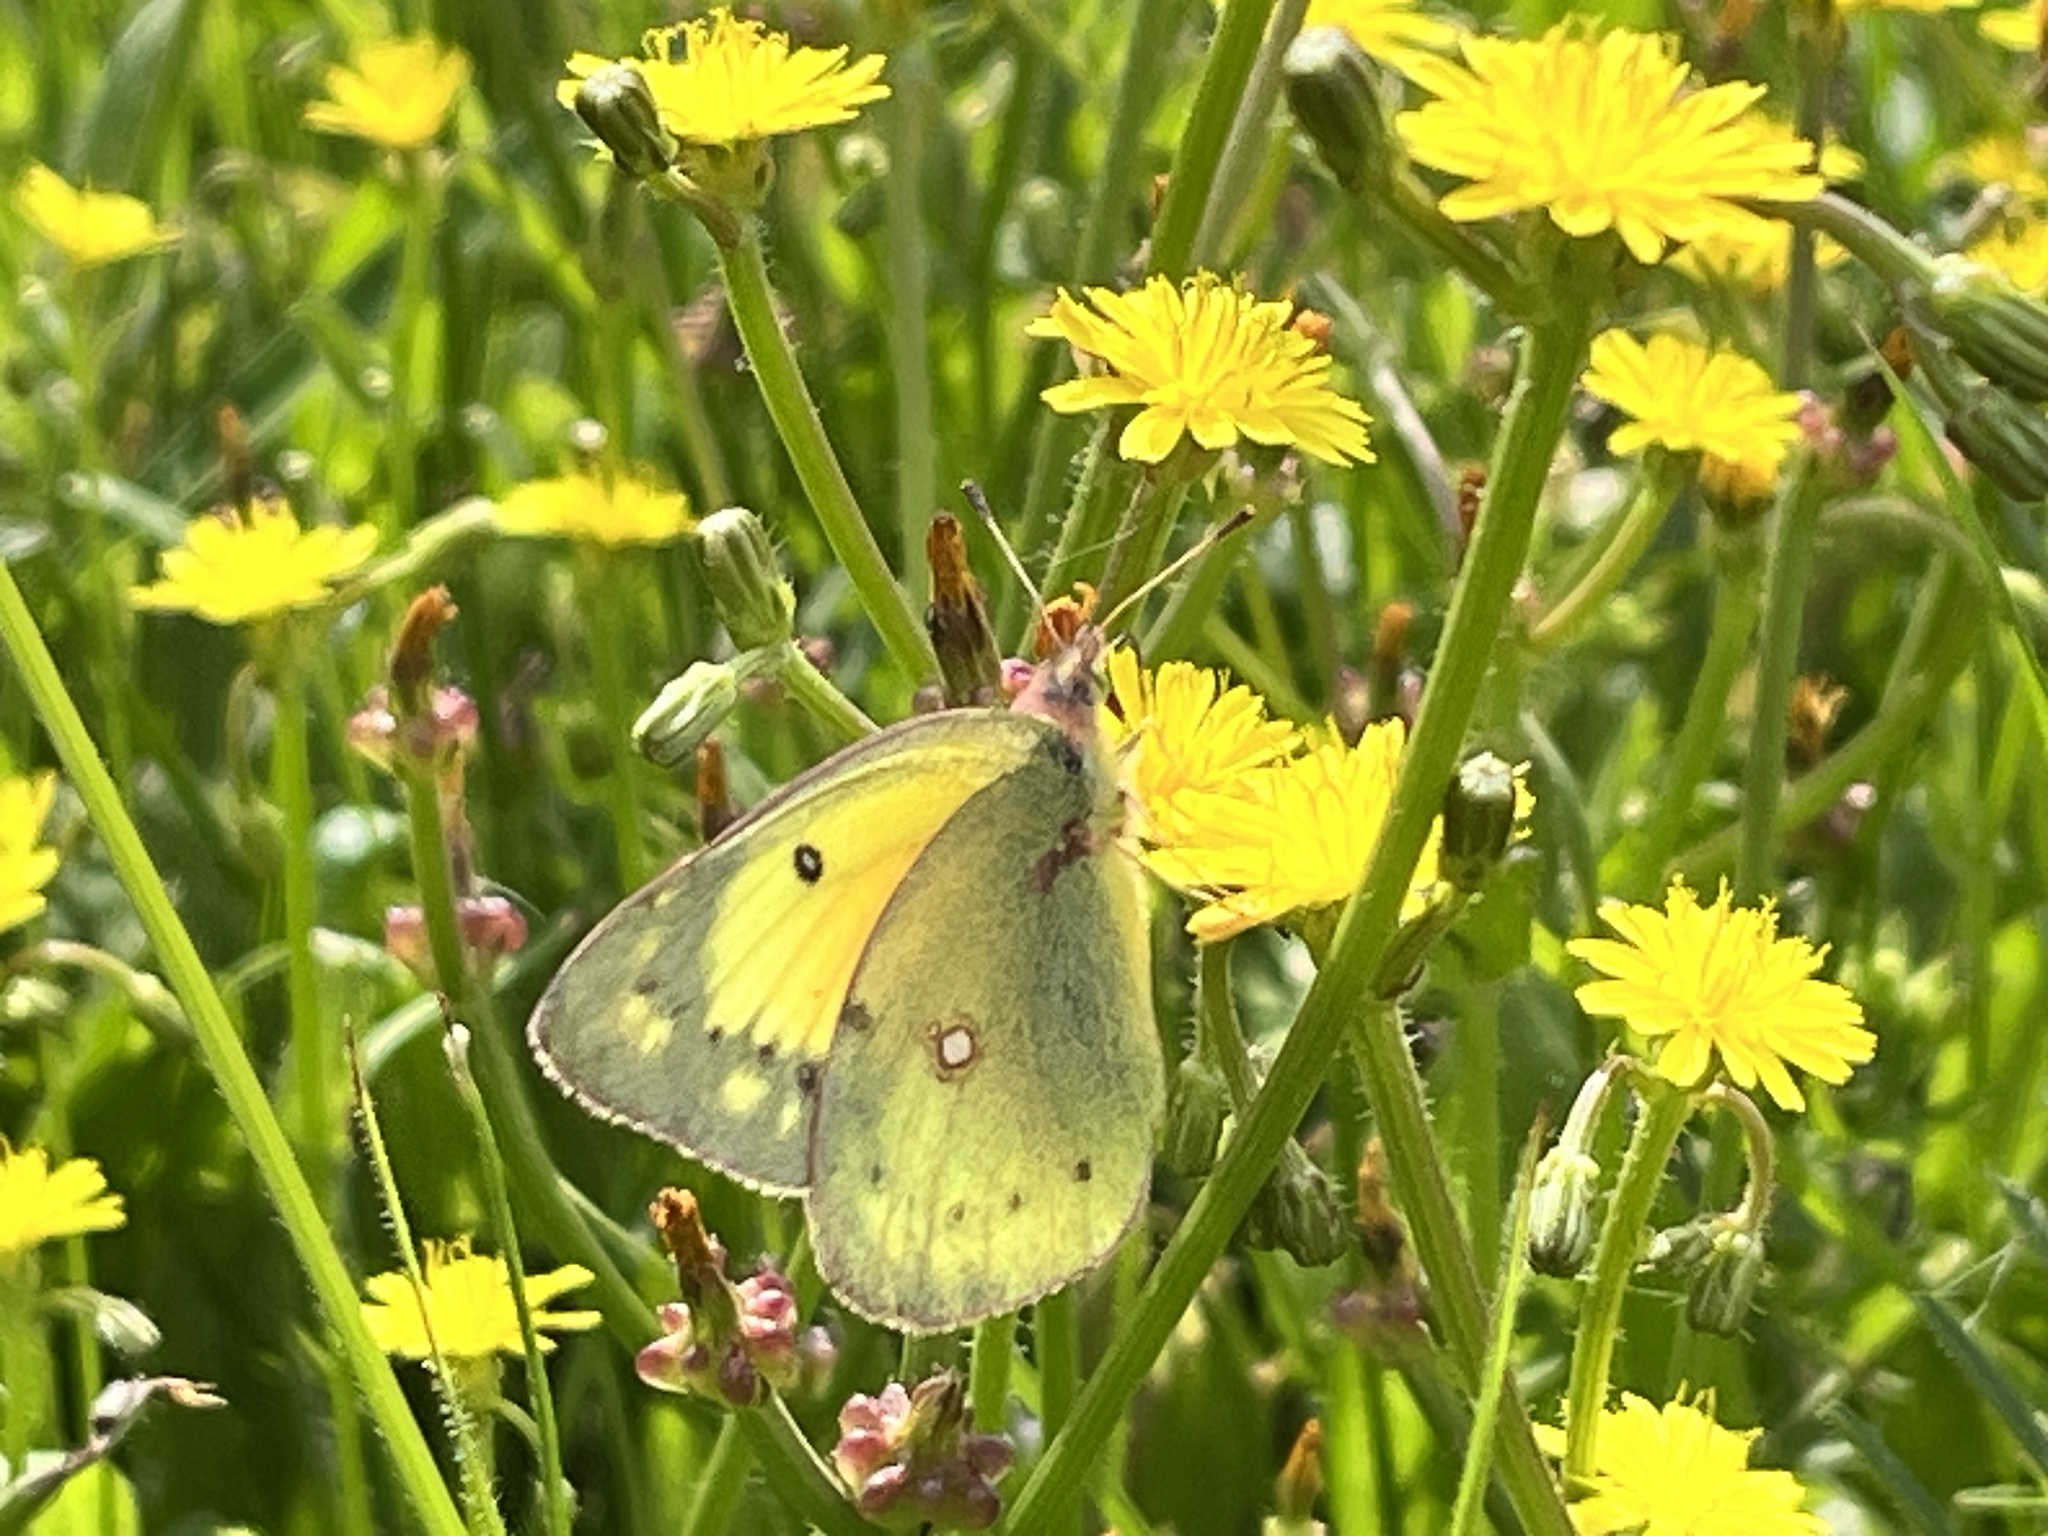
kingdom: Animalia
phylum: Arthropoda
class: Insecta
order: Lepidoptera
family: Pieridae
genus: Colias
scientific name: Colias eurytheme
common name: Alfalfa butterfly
